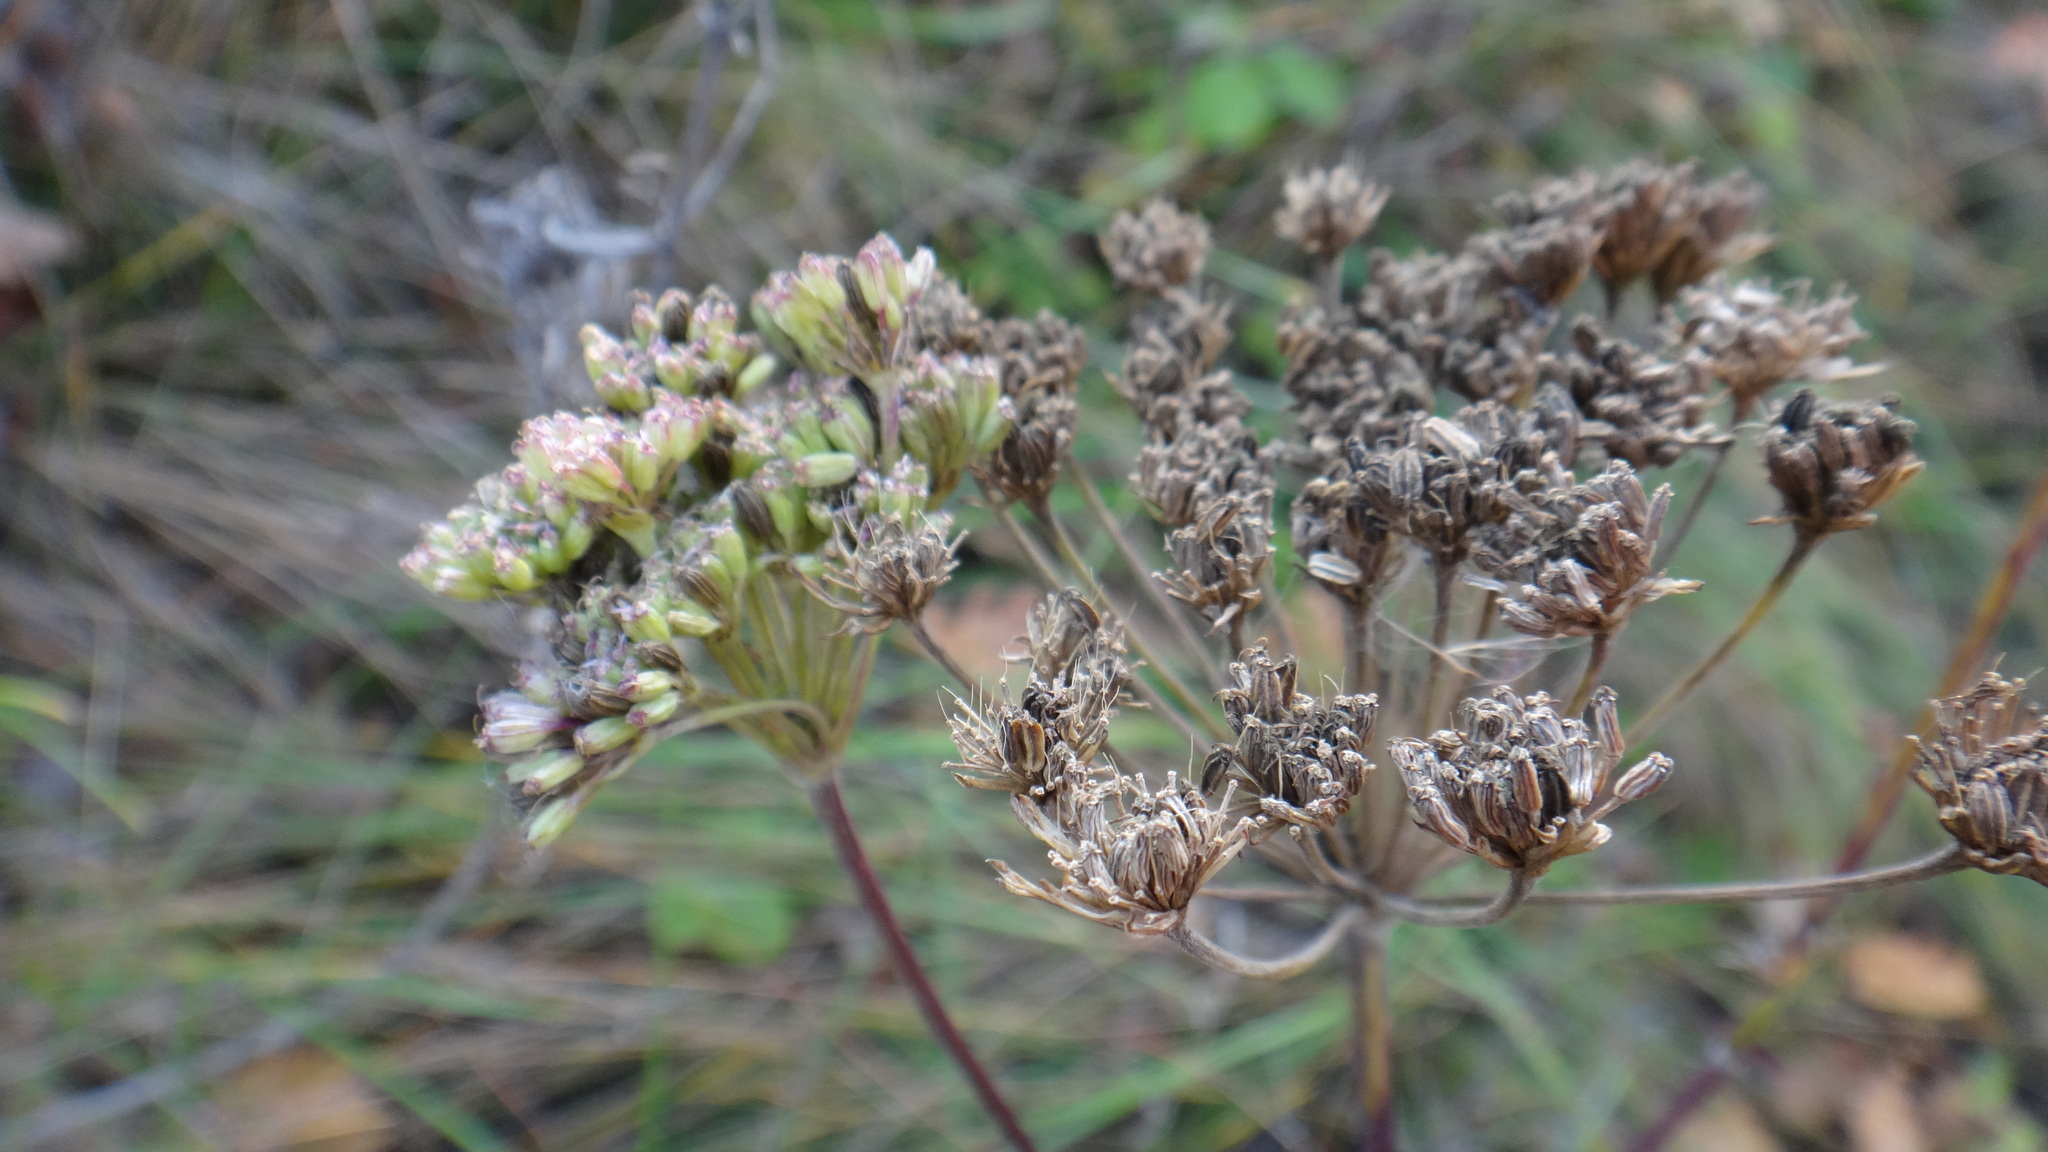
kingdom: Plantae
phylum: Tracheophyta
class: Magnoliopsida
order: Apiales
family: Apiaceae
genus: Seseli
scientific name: Seseli annuum
